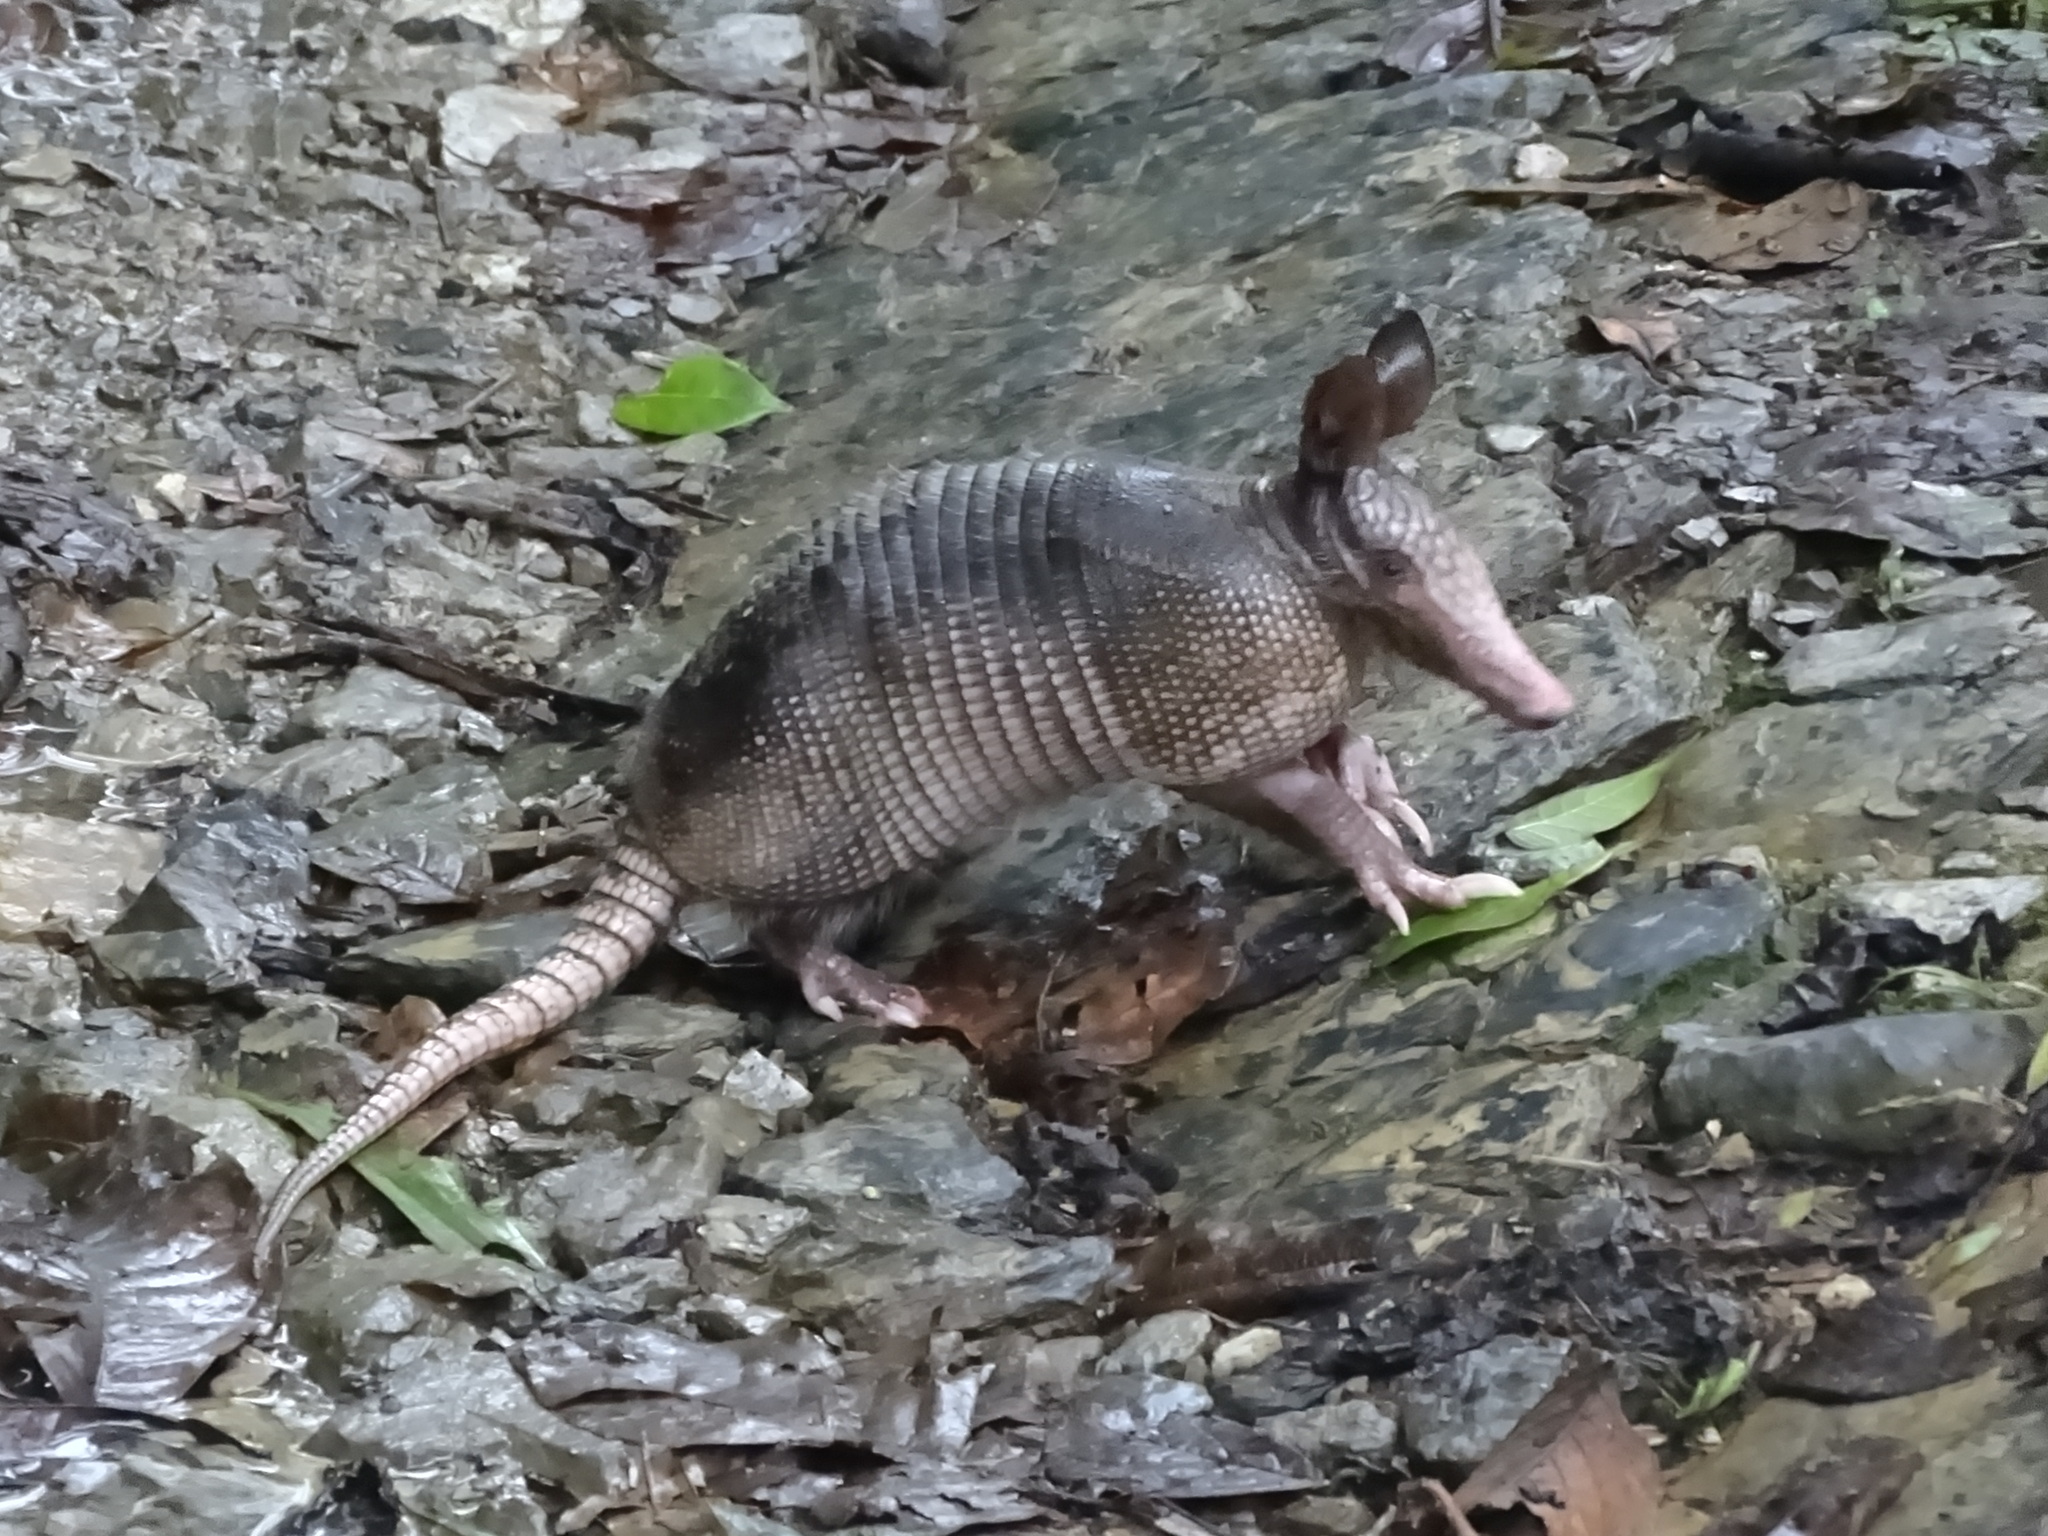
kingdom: Animalia
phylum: Chordata
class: Mammalia
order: Cingulata
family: Dasypodidae
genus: Dasypus
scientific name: Dasypus novemcinctus
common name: Nine-banded armadillo
